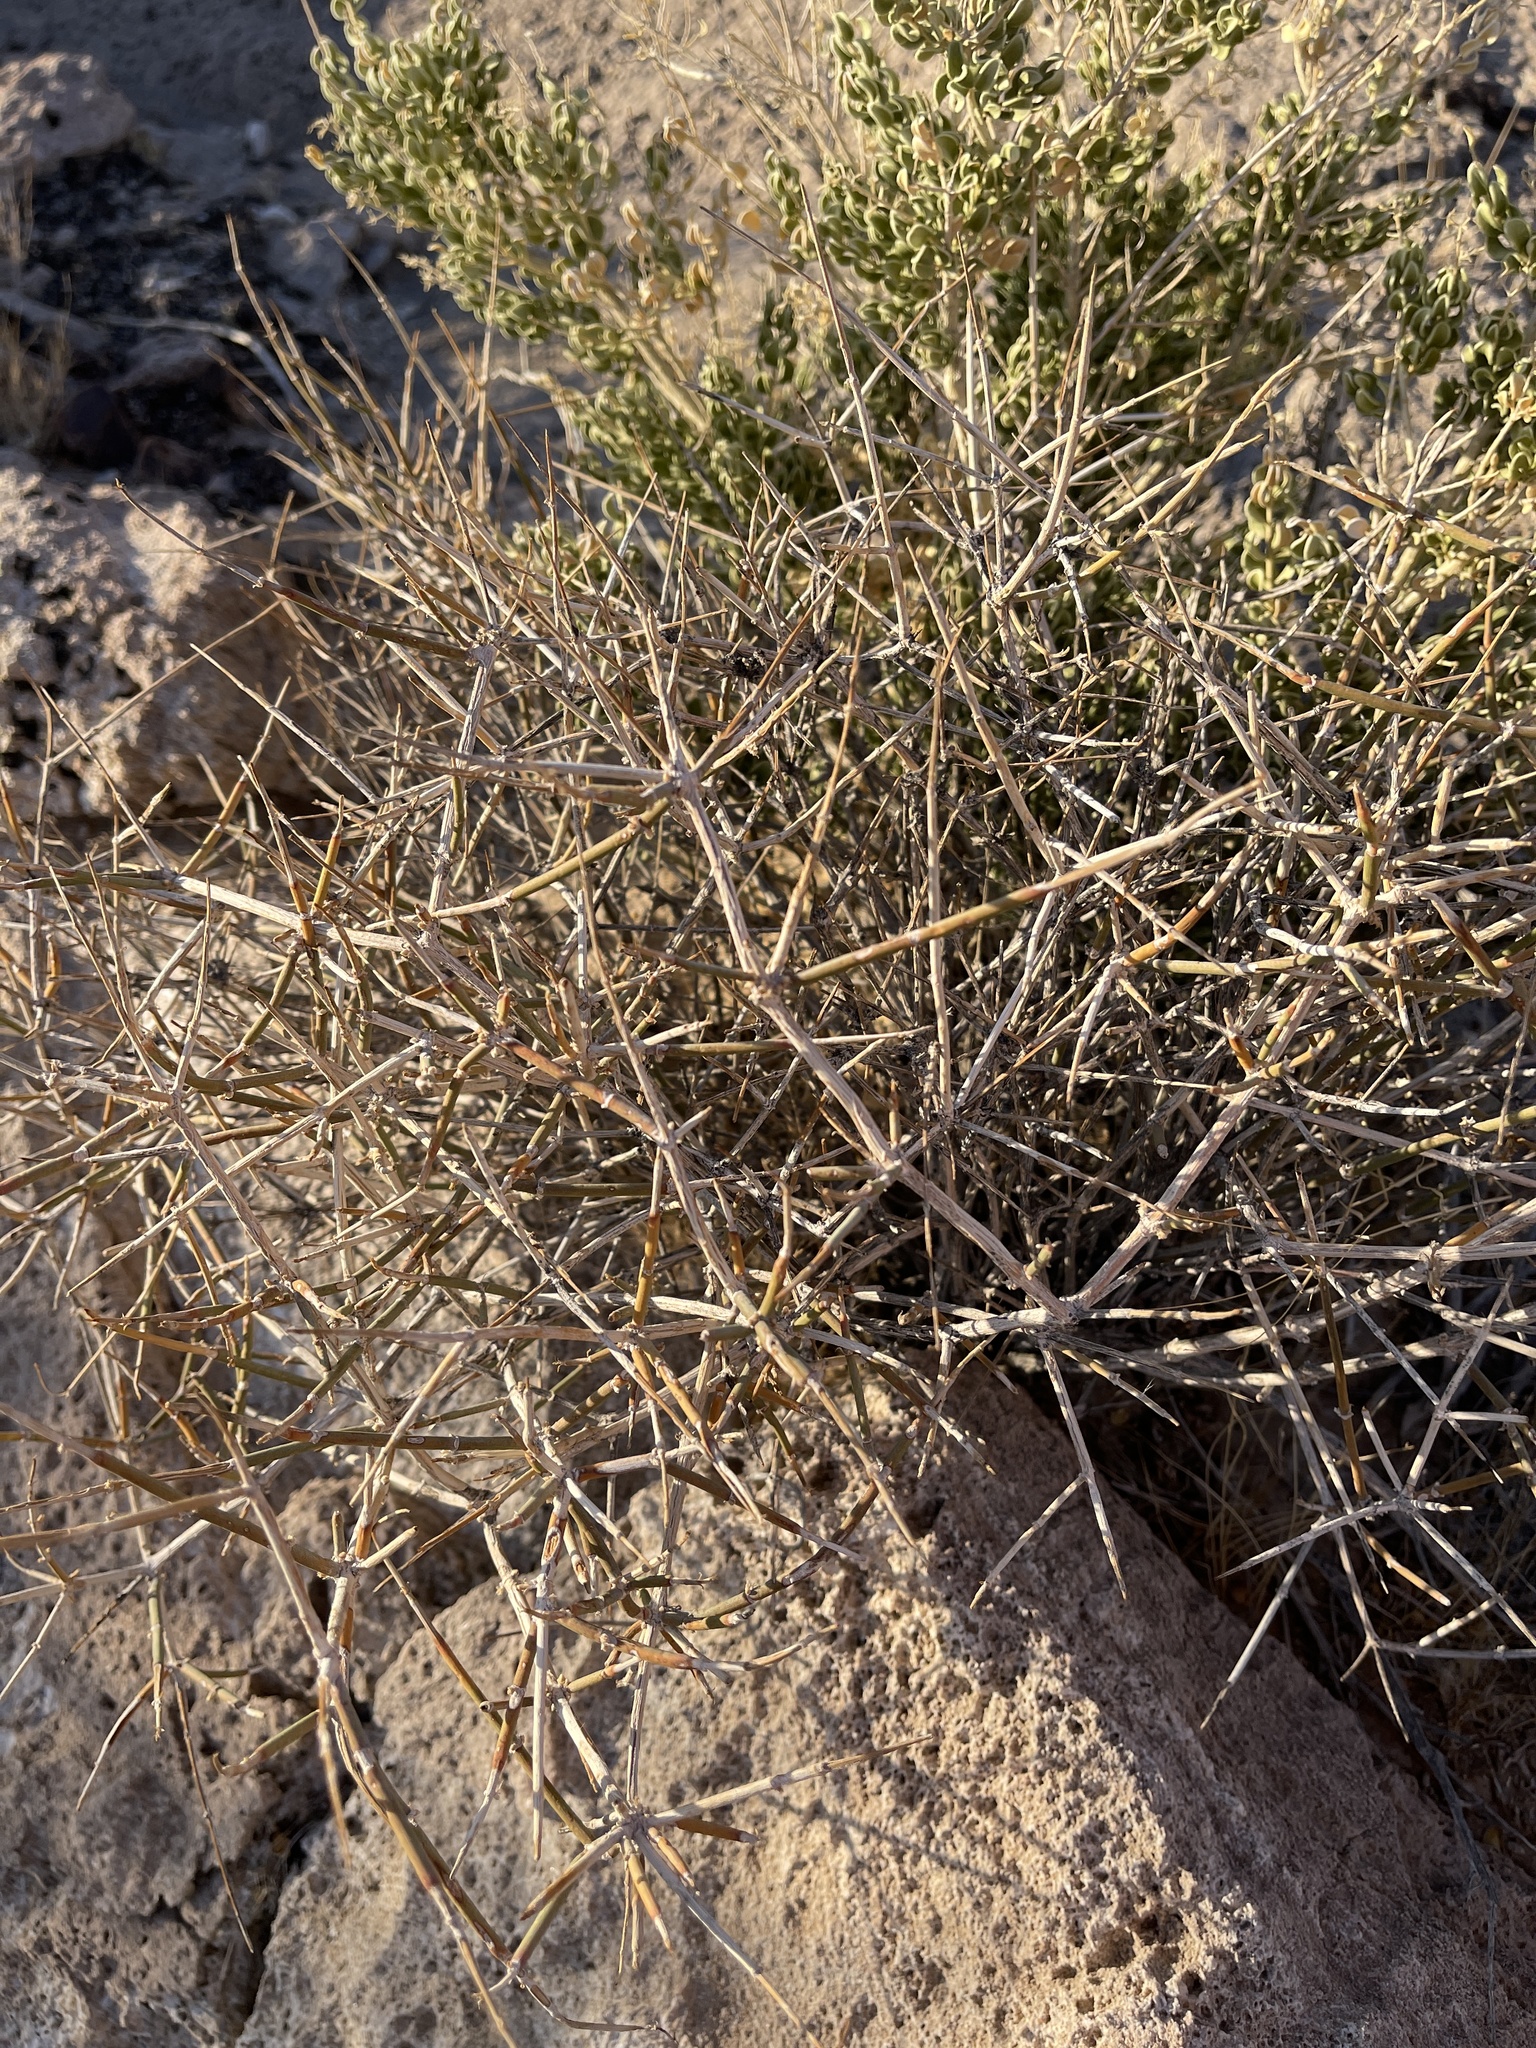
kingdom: Plantae
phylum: Tracheophyta
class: Gnetopsida
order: Ephedrales
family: Ephedraceae
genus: Ephedra
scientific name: Ephedra nevadensis
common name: Gray ephedra
